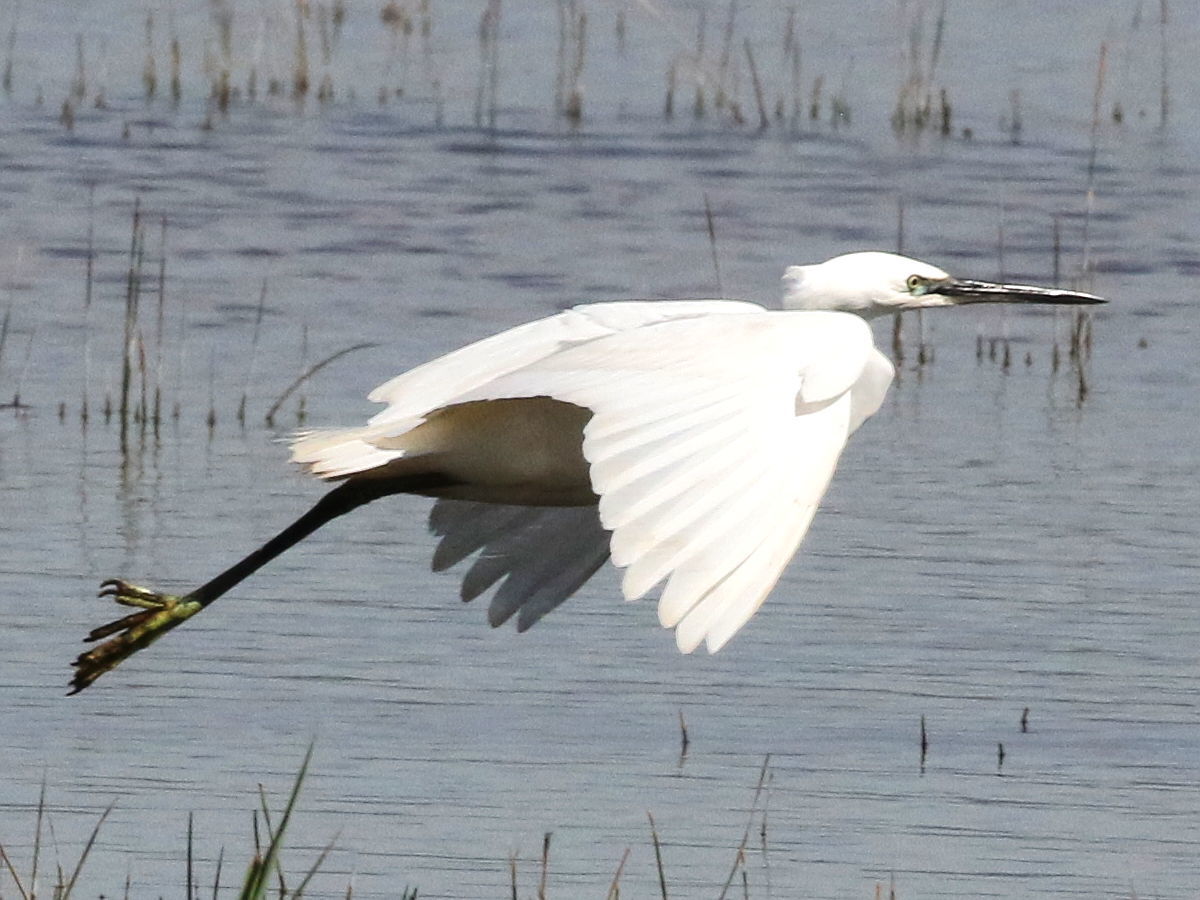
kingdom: Animalia
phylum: Chordata
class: Aves
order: Pelecaniformes
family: Ardeidae
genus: Egretta
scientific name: Egretta garzetta
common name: Little egret
